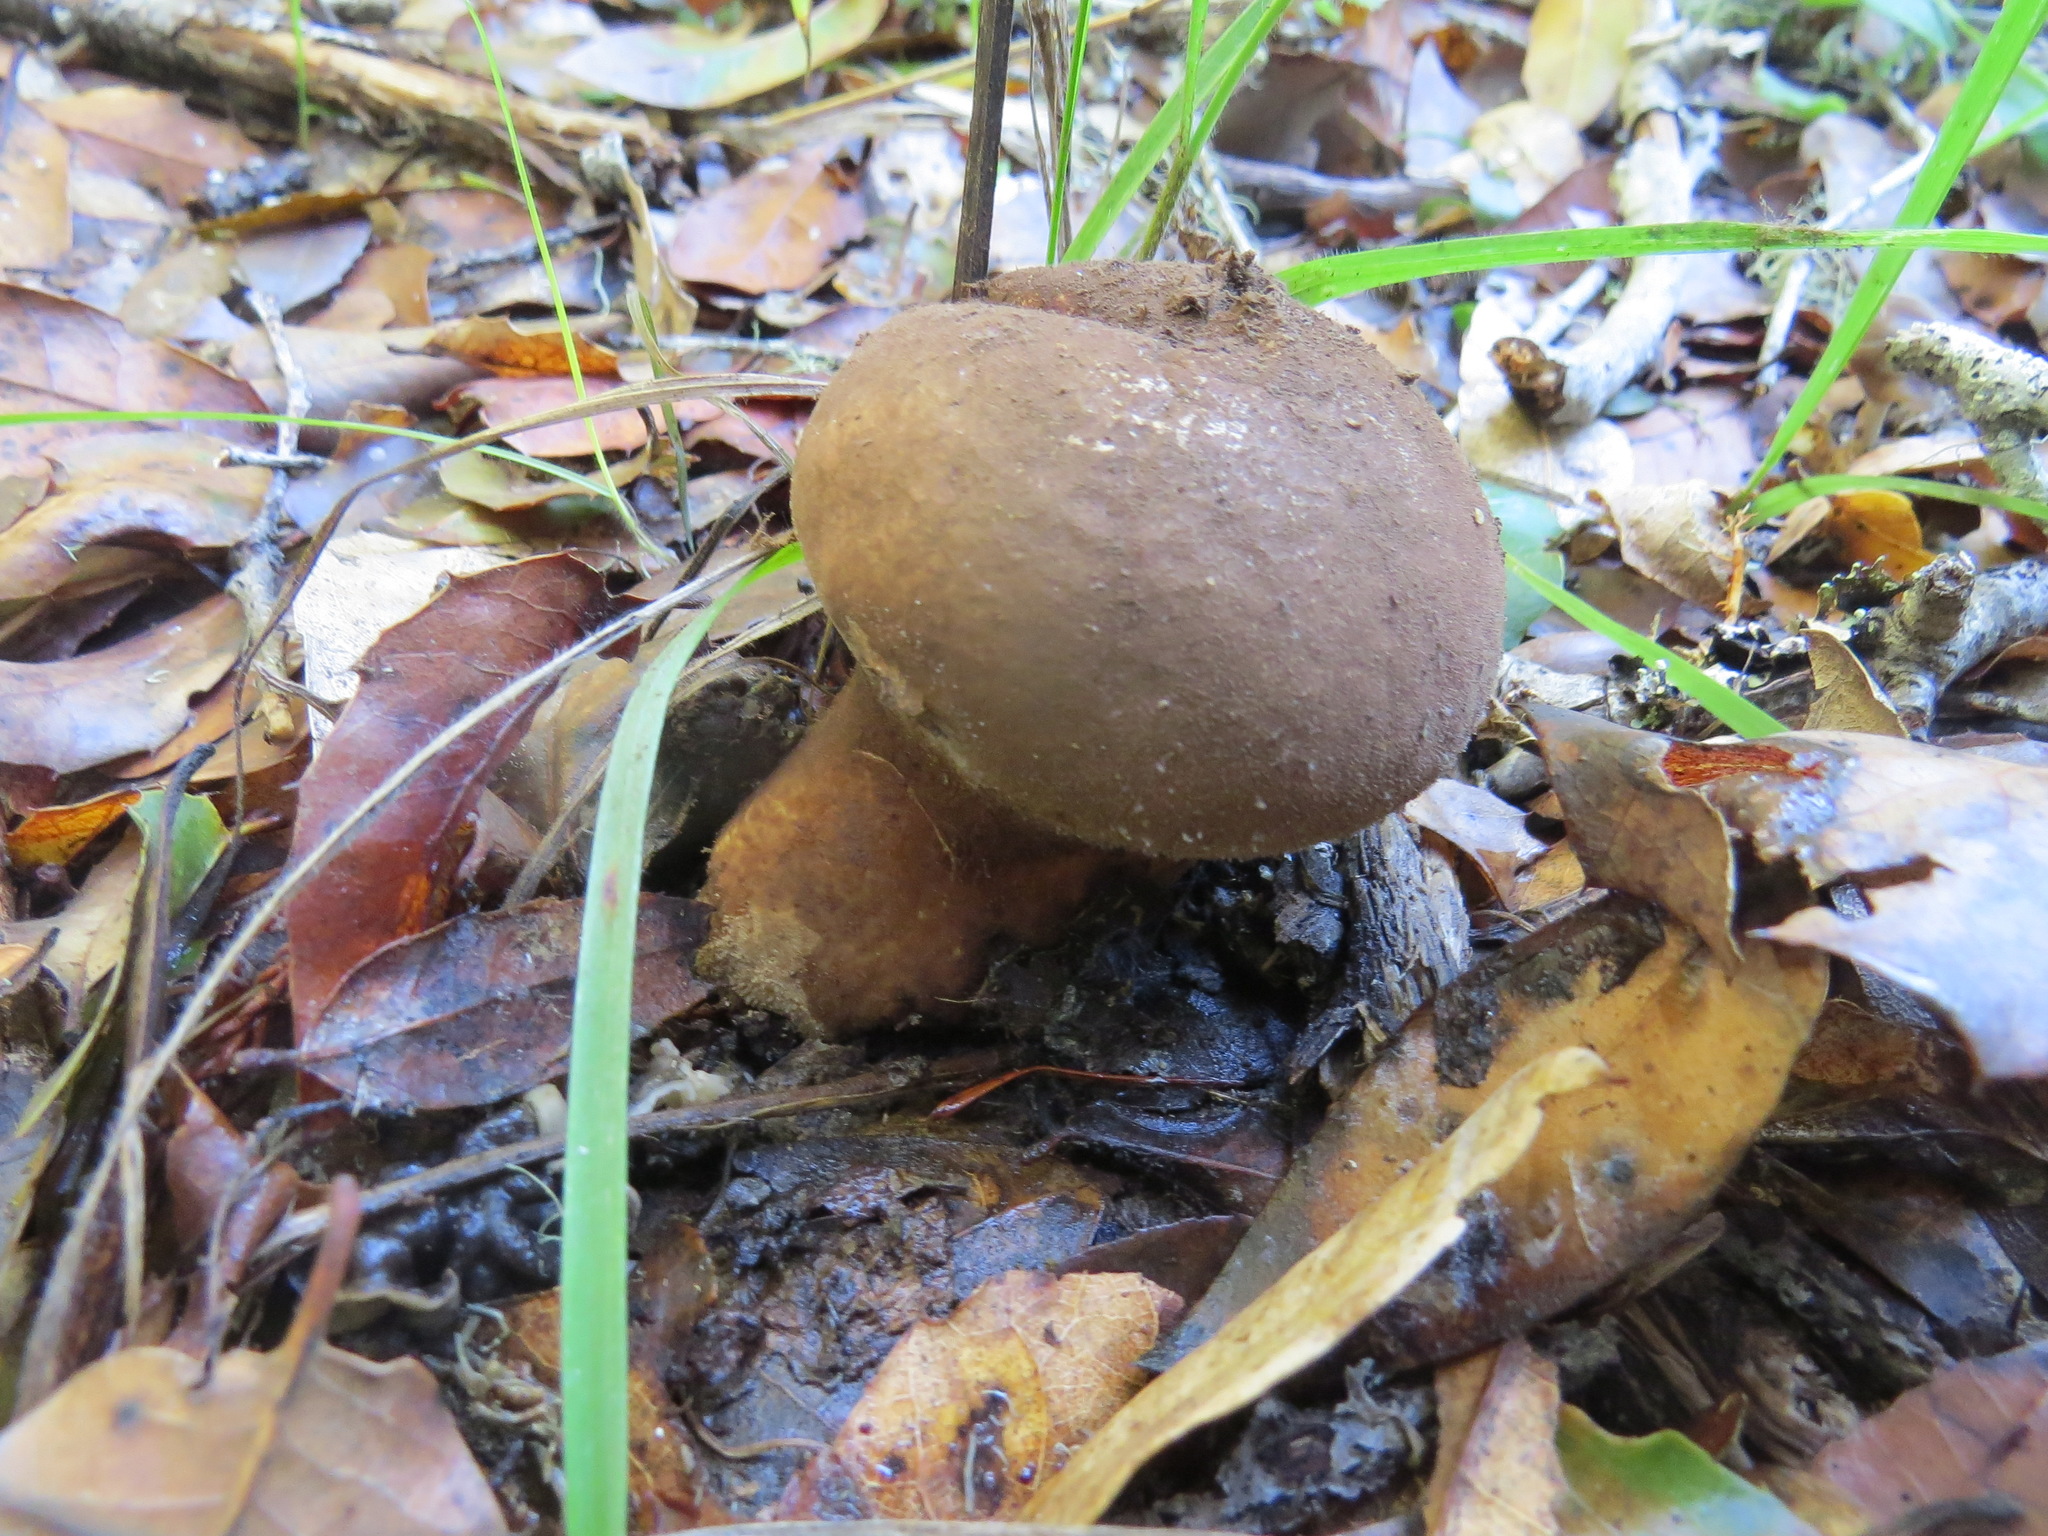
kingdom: Fungi
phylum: Basidiomycota
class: Agaricomycetes
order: Agaricales
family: Lycoperdaceae
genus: Lycoperdon
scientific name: Lycoperdon umbrinum
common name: Umber-brown puffball
